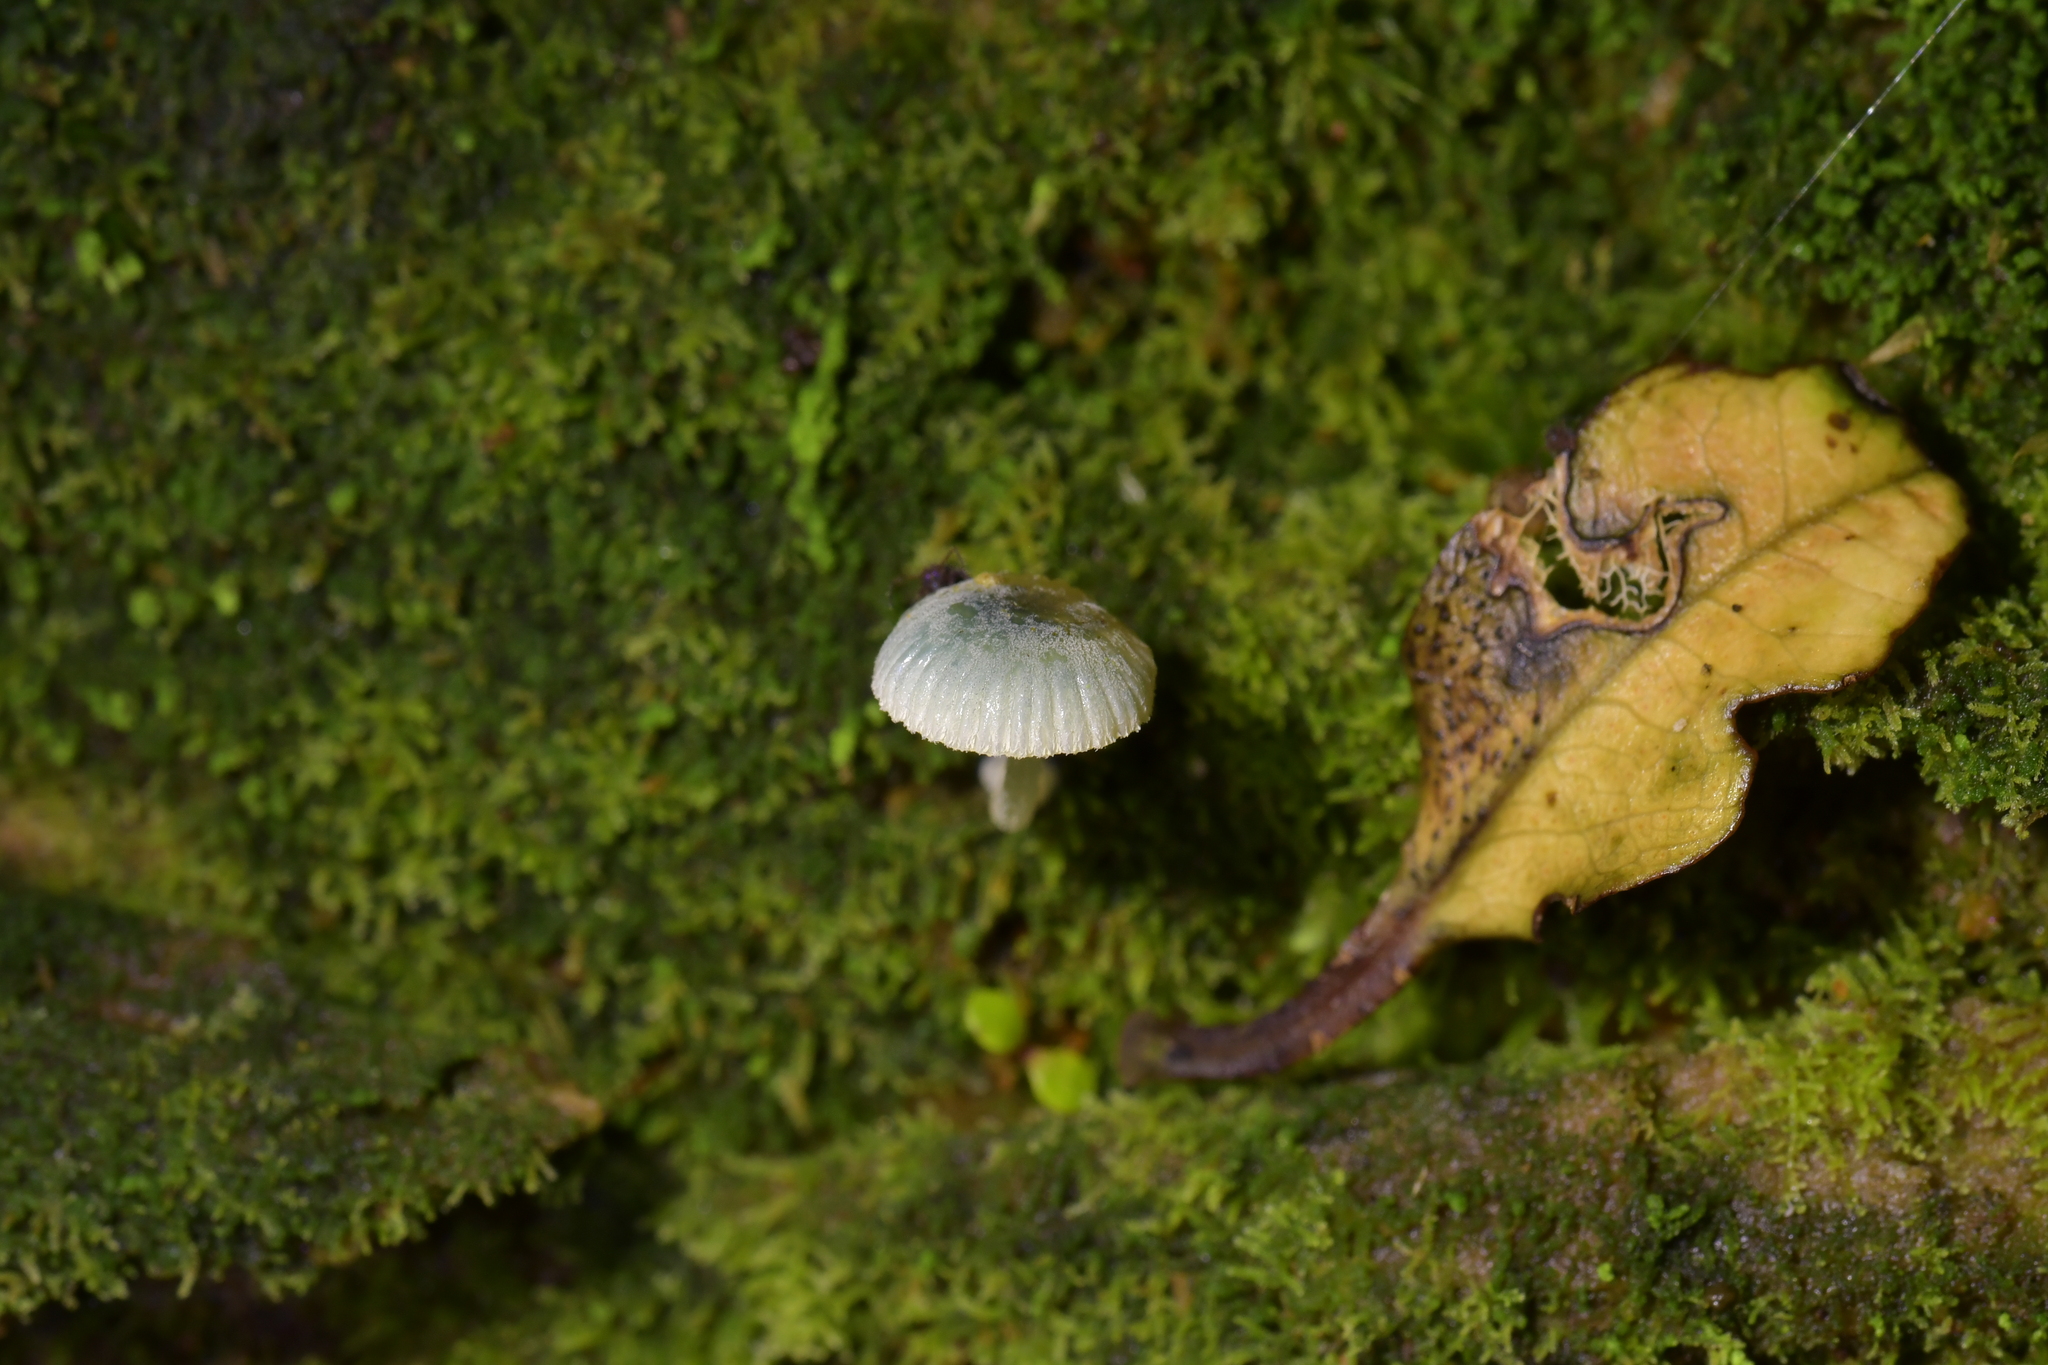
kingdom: Fungi
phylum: Basidiomycota
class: Agaricomycetes
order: Agaricales
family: Mycenaceae
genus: Mycena
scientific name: Mycena interrupta
